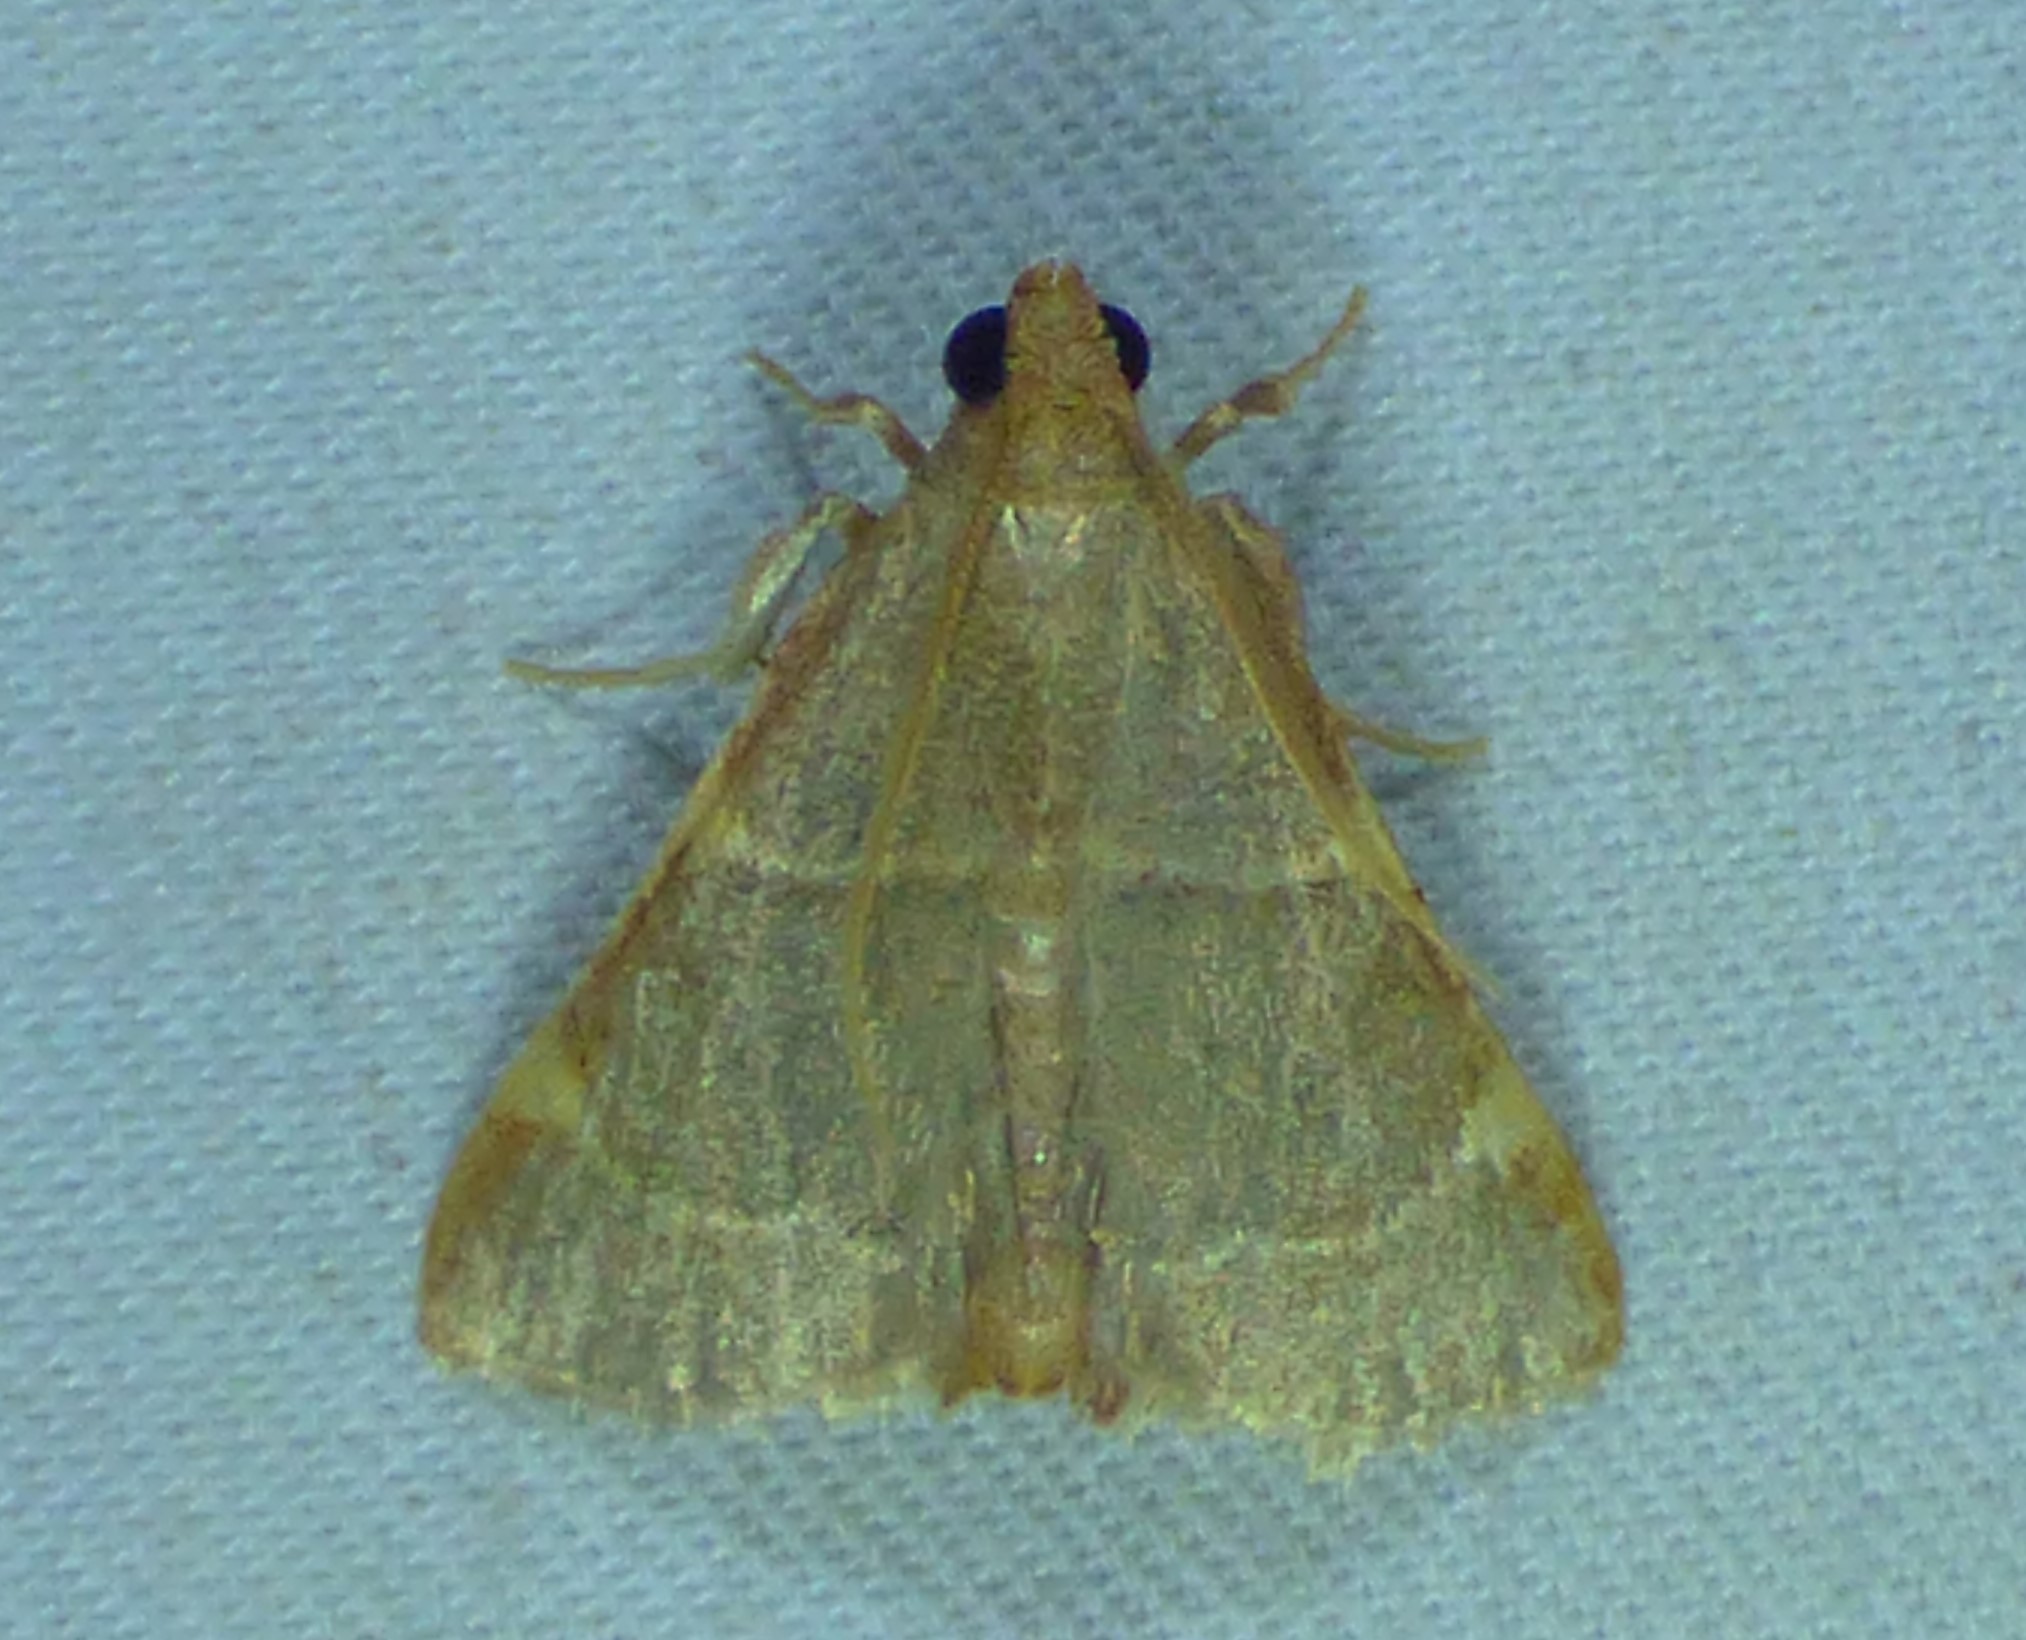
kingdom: Animalia
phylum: Arthropoda
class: Insecta
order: Lepidoptera
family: Pyralidae
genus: Hypsopygia
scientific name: Hypsopygia binodulalis
